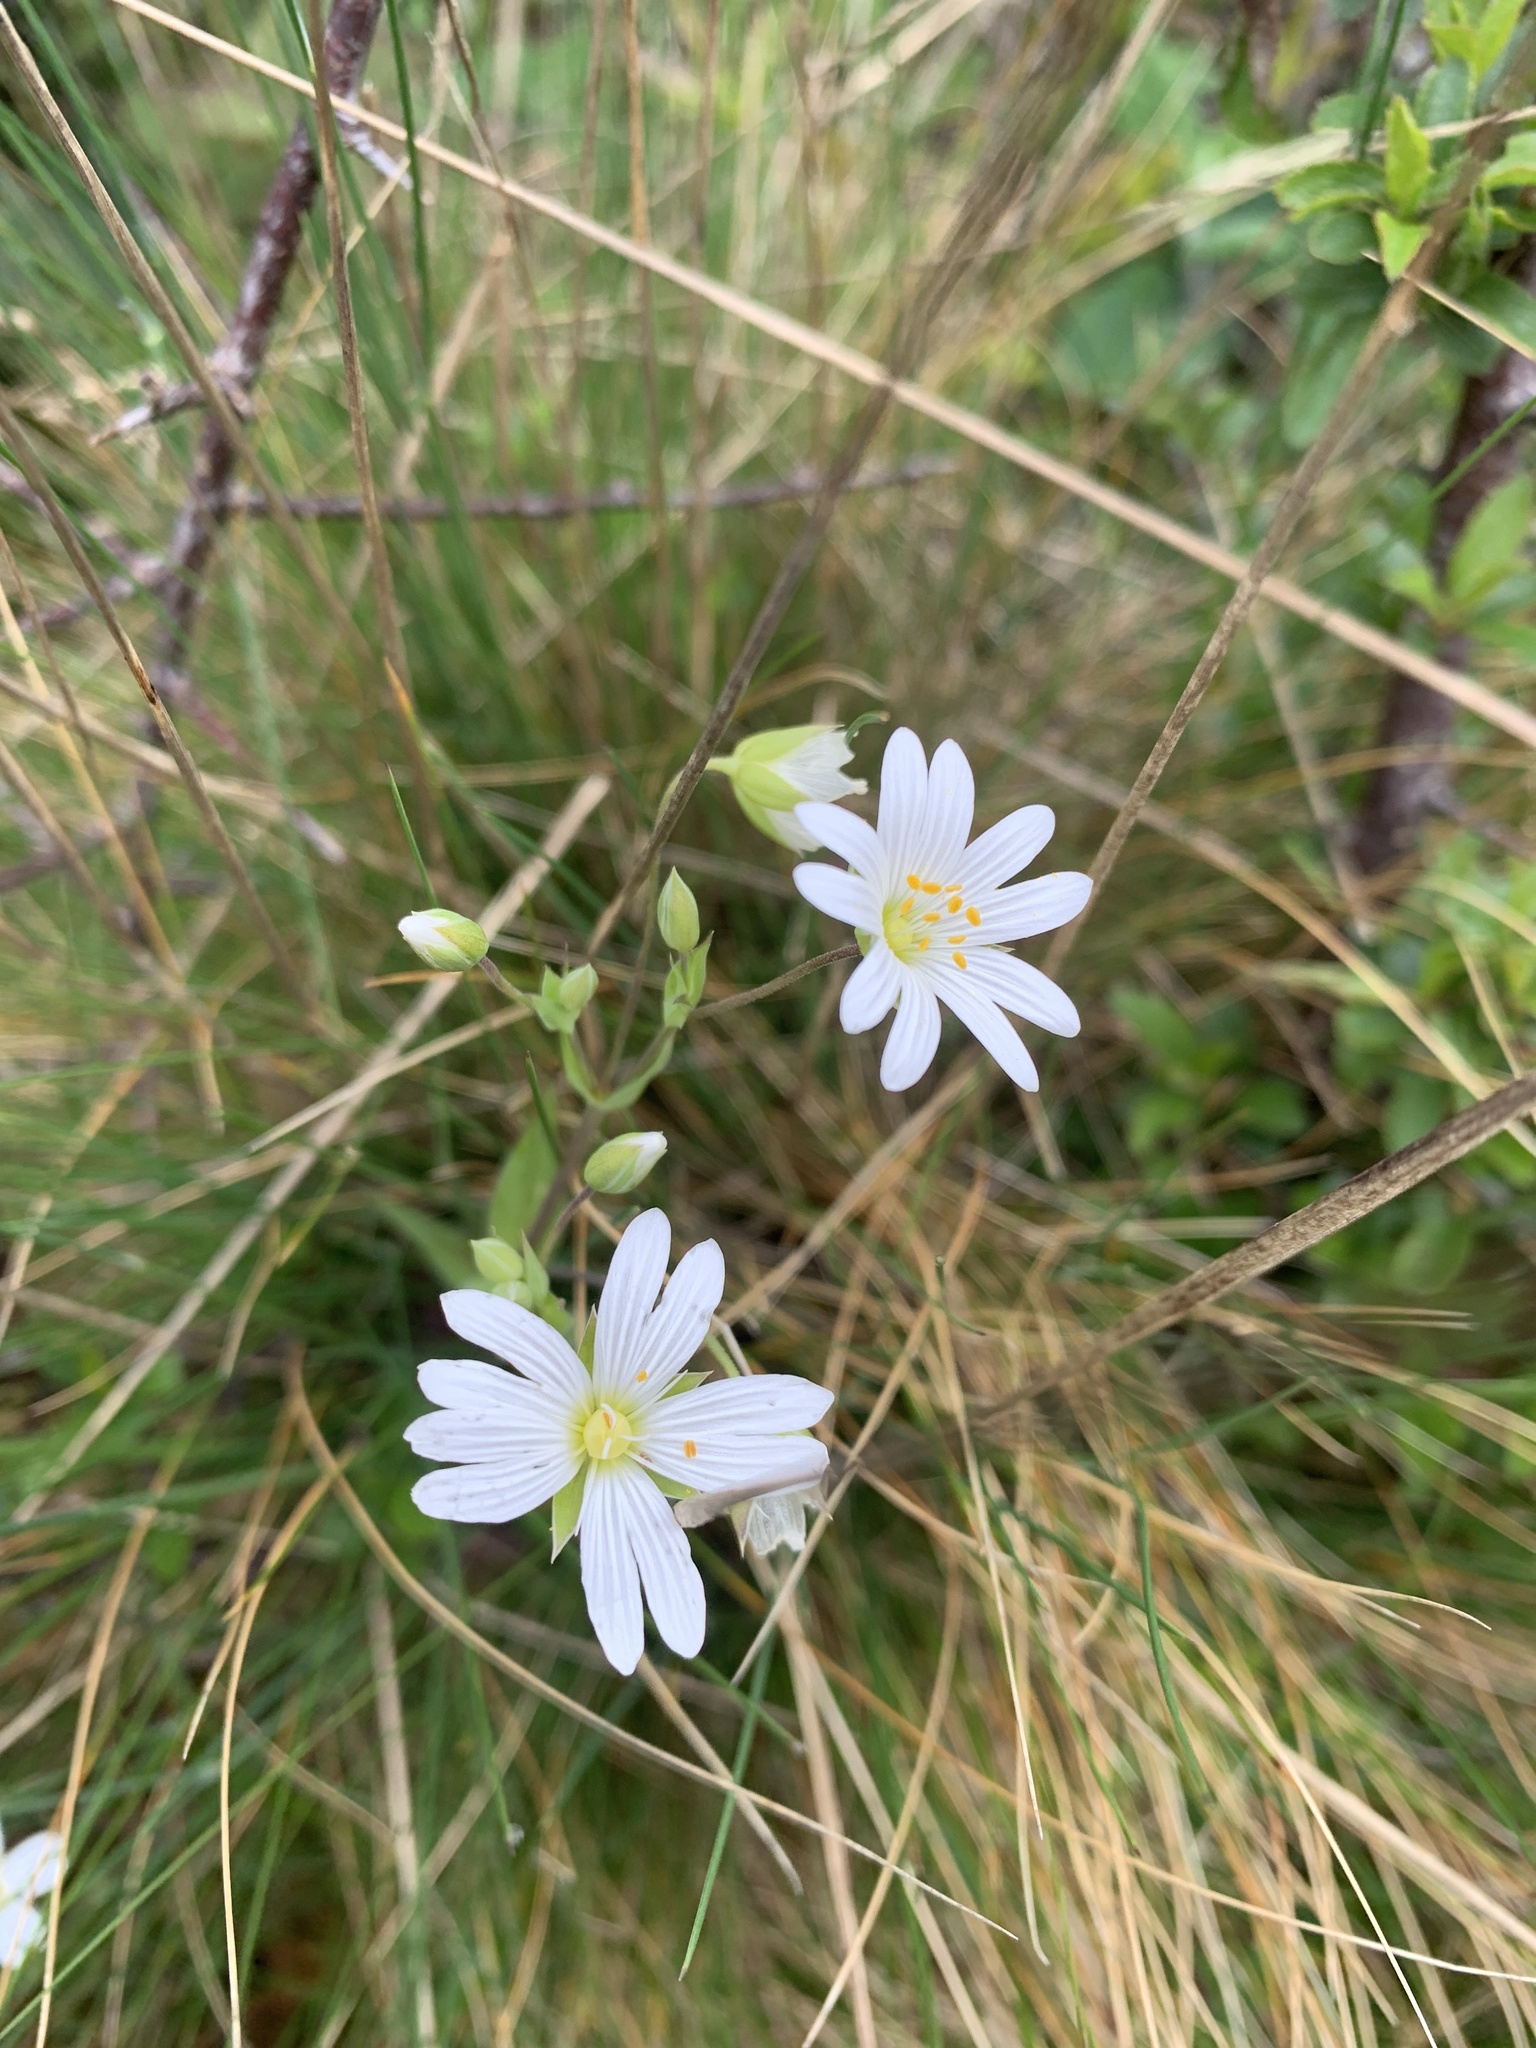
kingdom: Plantae
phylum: Tracheophyta
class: Magnoliopsida
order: Caryophyllales
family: Caryophyllaceae
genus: Rabelera
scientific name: Rabelera holostea
